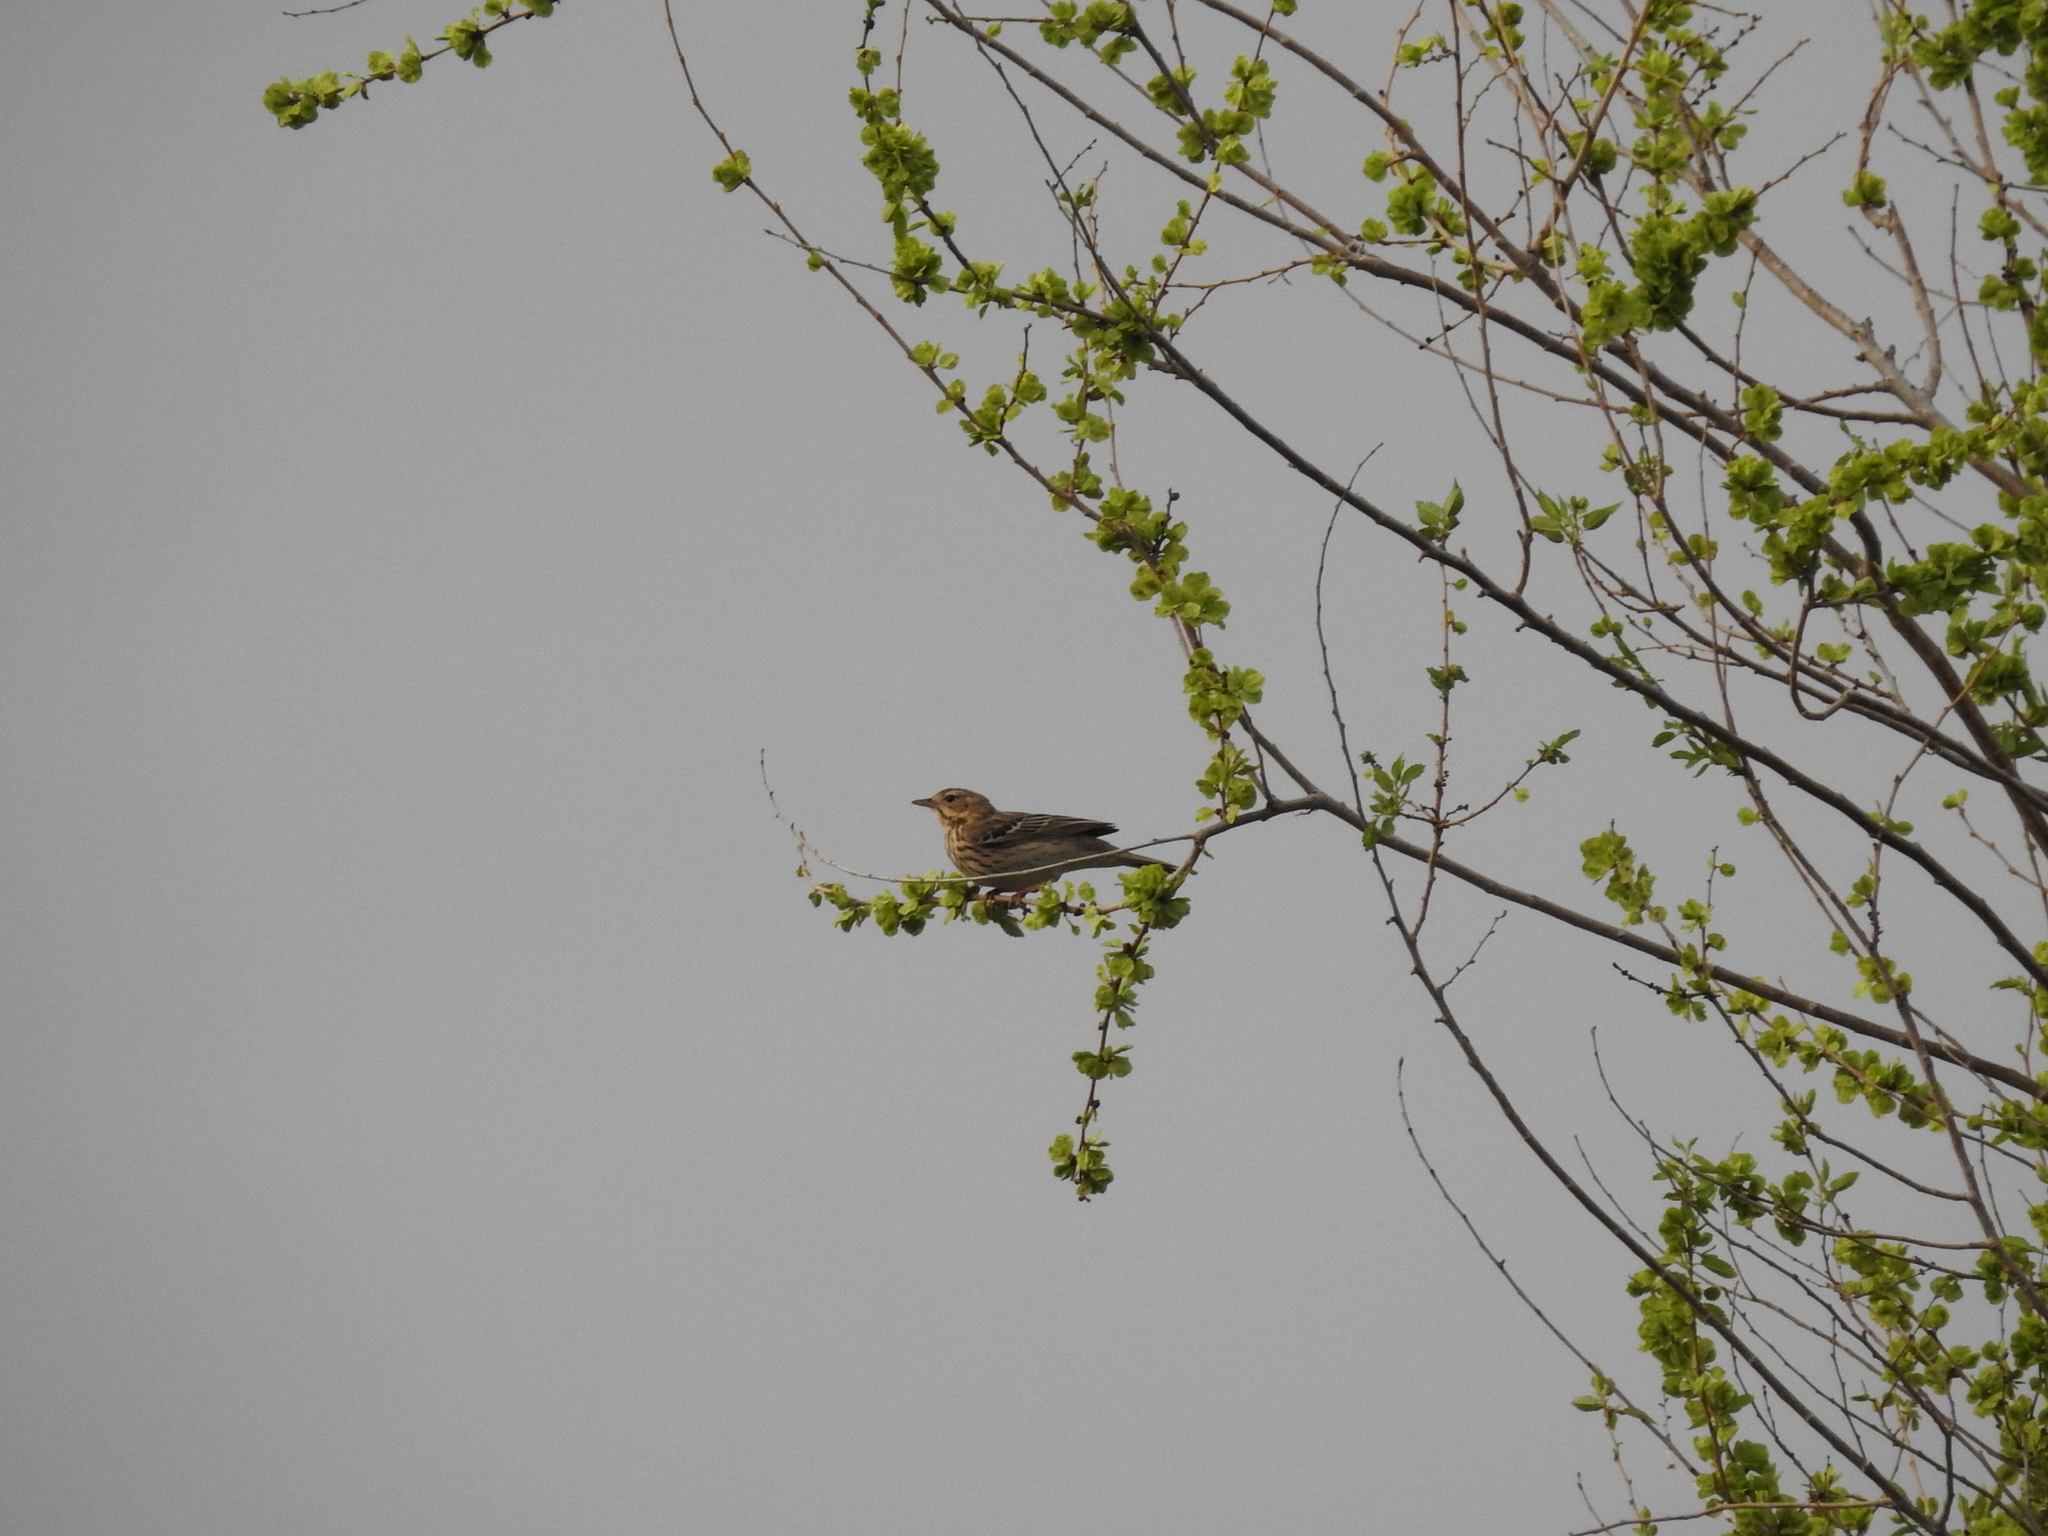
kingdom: Animalia
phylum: Chordata
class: Aves
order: Passeriformes
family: Motacillidae
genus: Anthus
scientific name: Anthus trivialis
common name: Tree pipit
